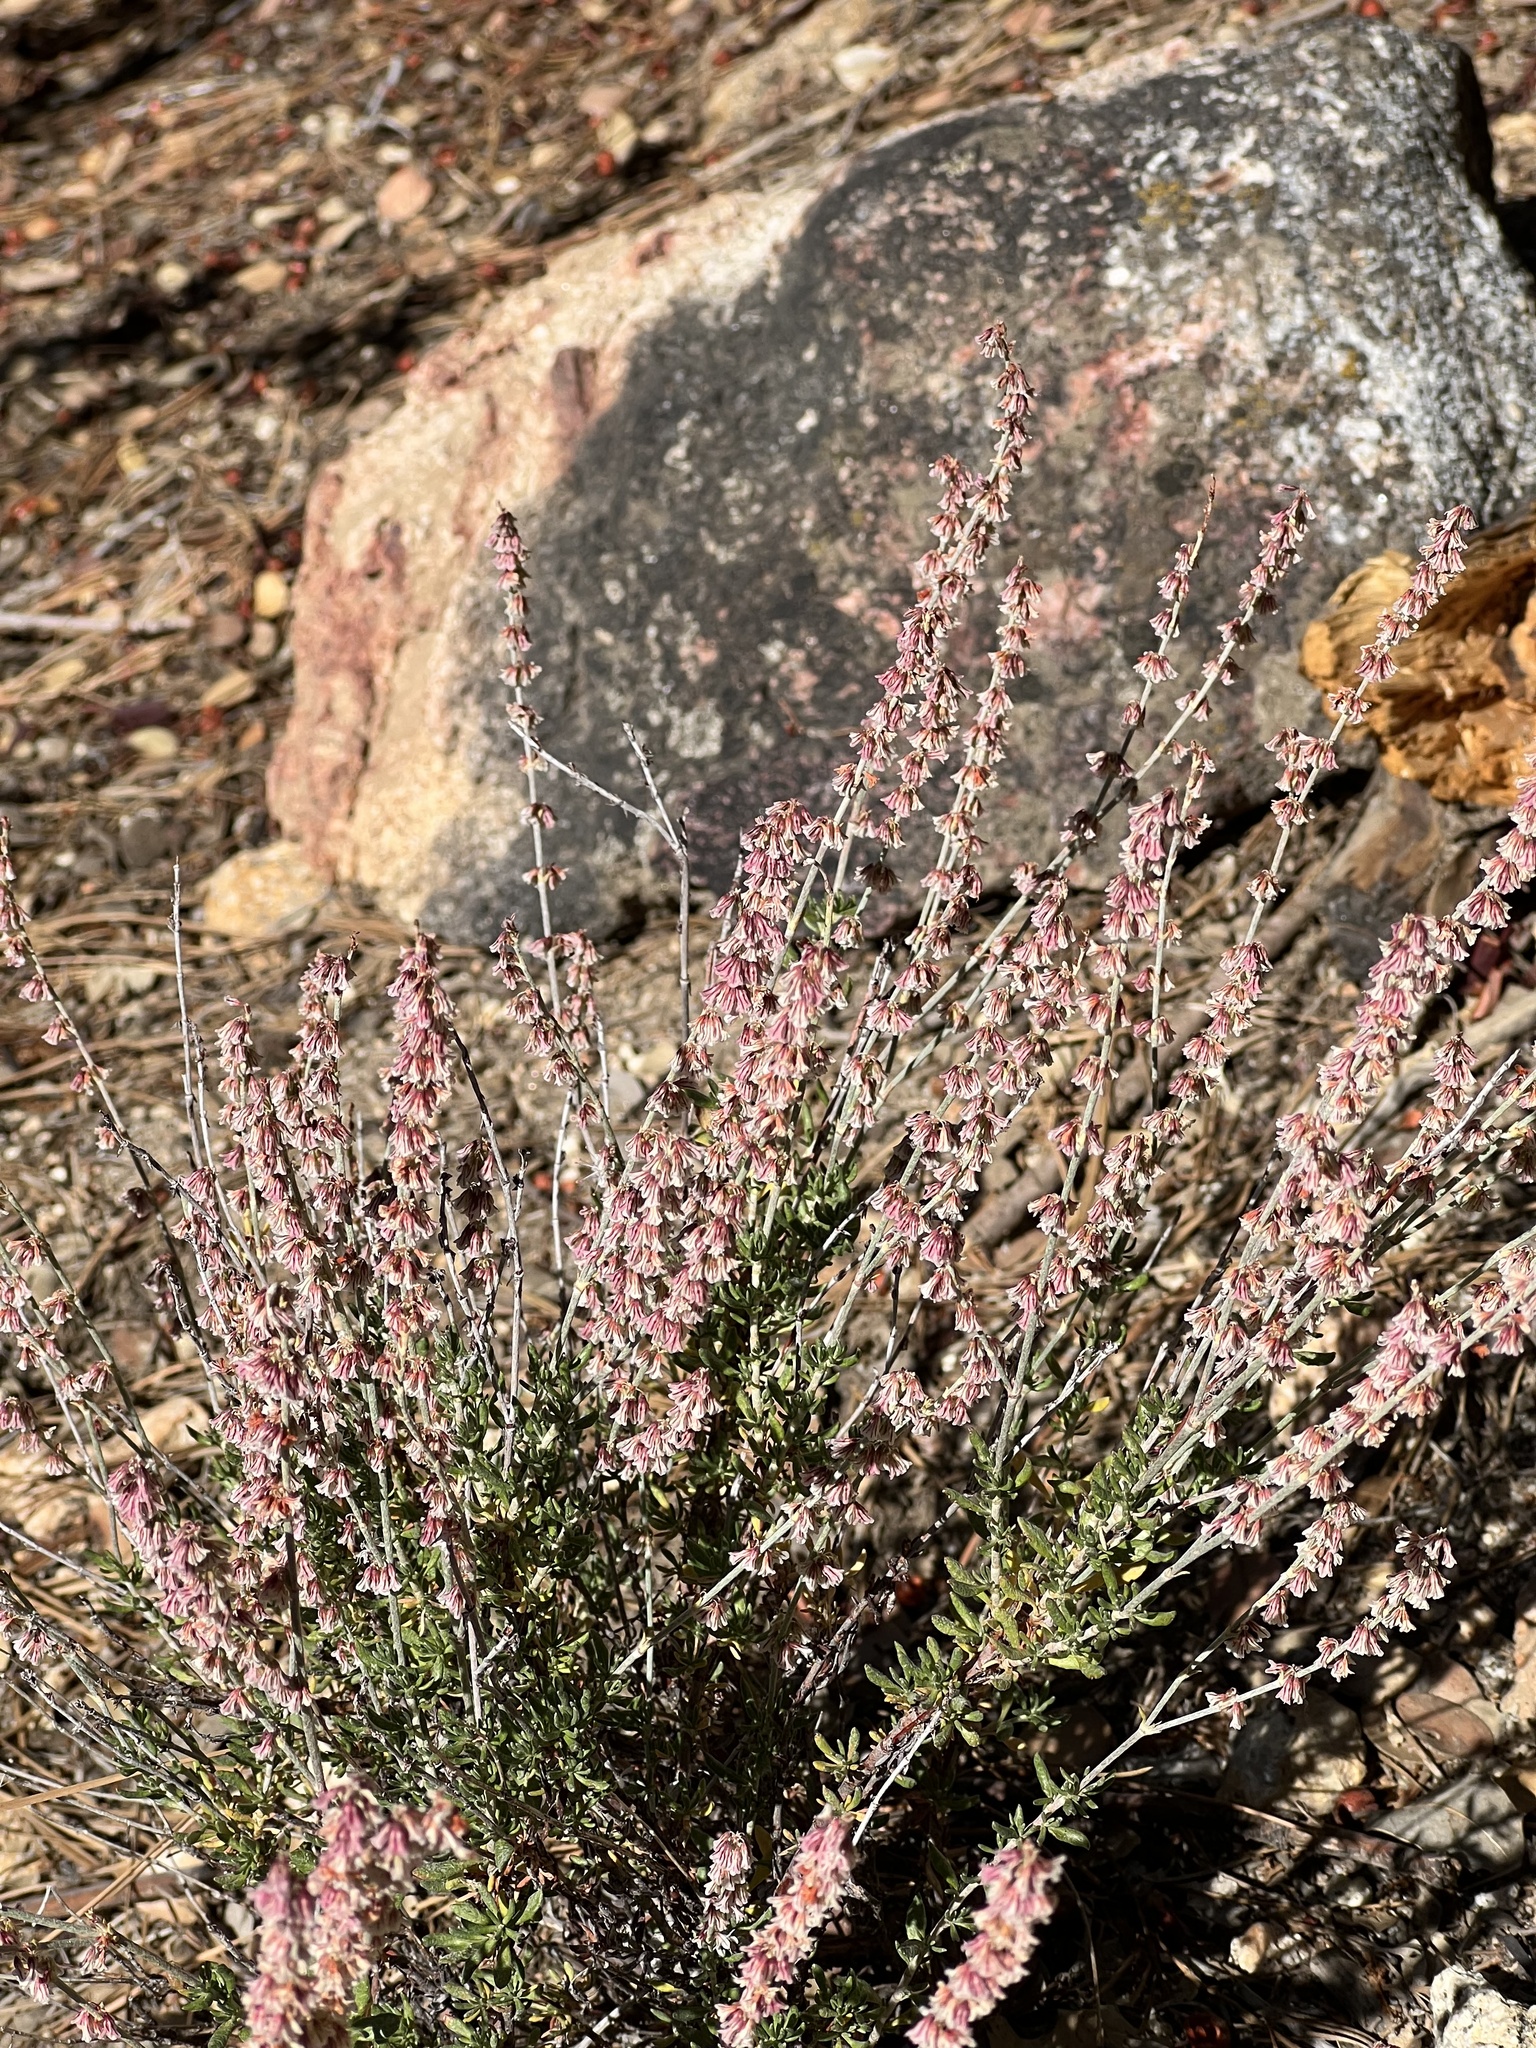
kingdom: Plantae
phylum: Tracheophyta
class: Magnoliopsida
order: Caryophyllales
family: Polygonaceae
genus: Eriogonum
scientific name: Eriogonum wrightii
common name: Bastard-sage
